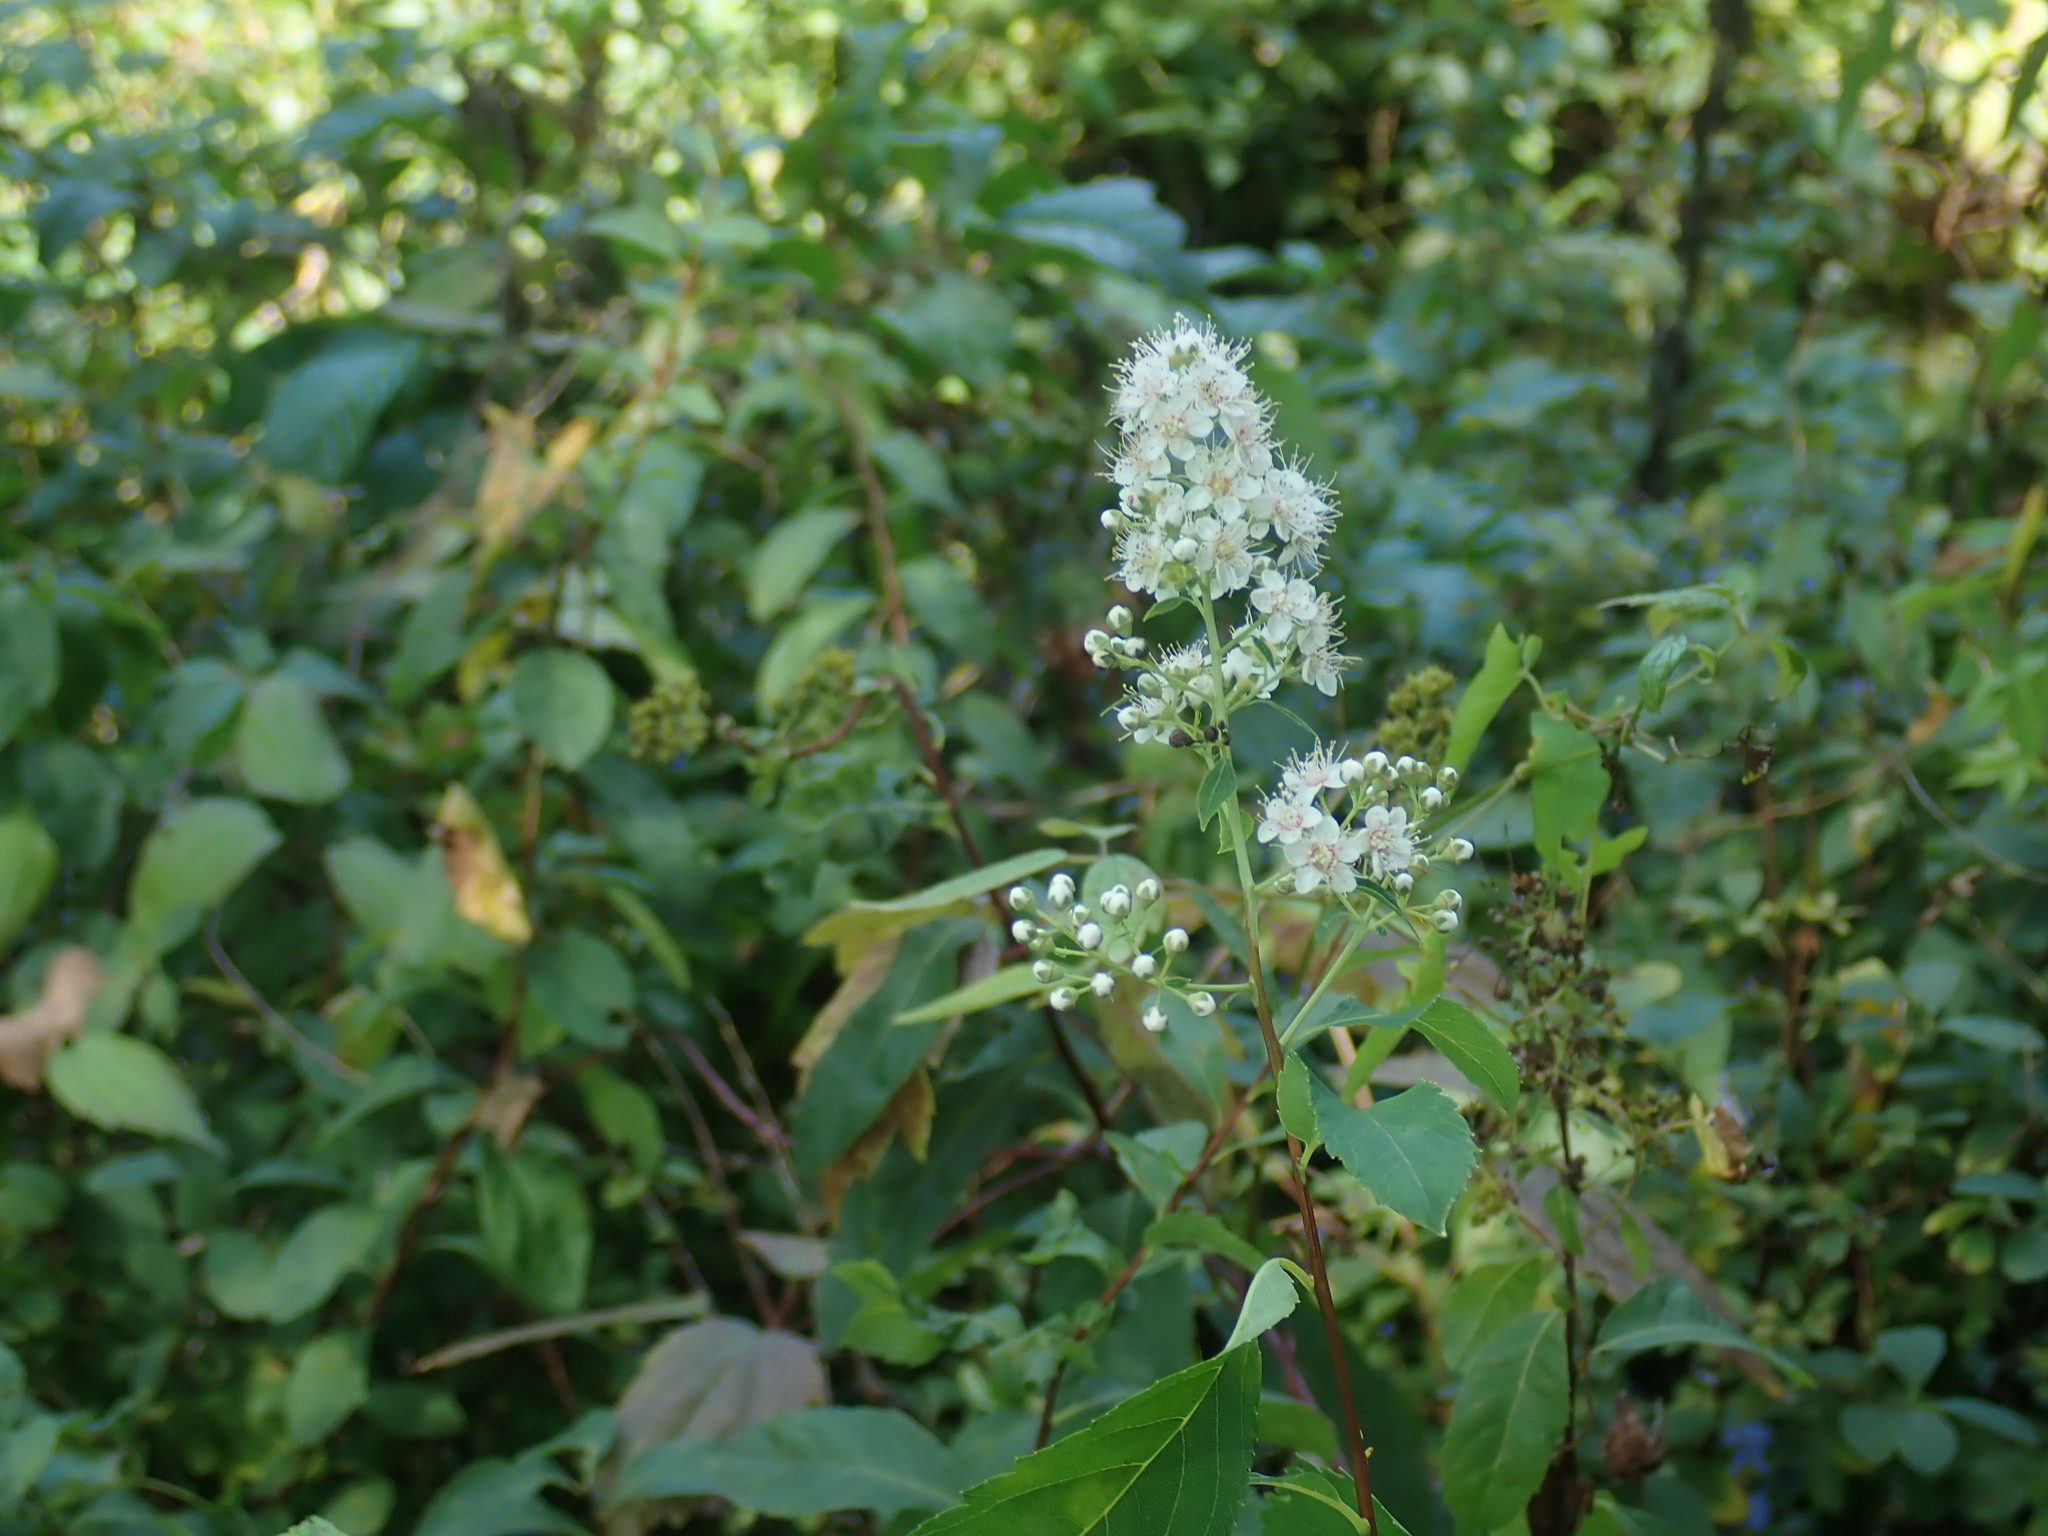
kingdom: Plantae
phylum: Tracheophyta
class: Magnoliopsida
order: Rosales
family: Rosaceae
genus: Spiraea
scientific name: Spiraea alba
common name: Pale bridewort
